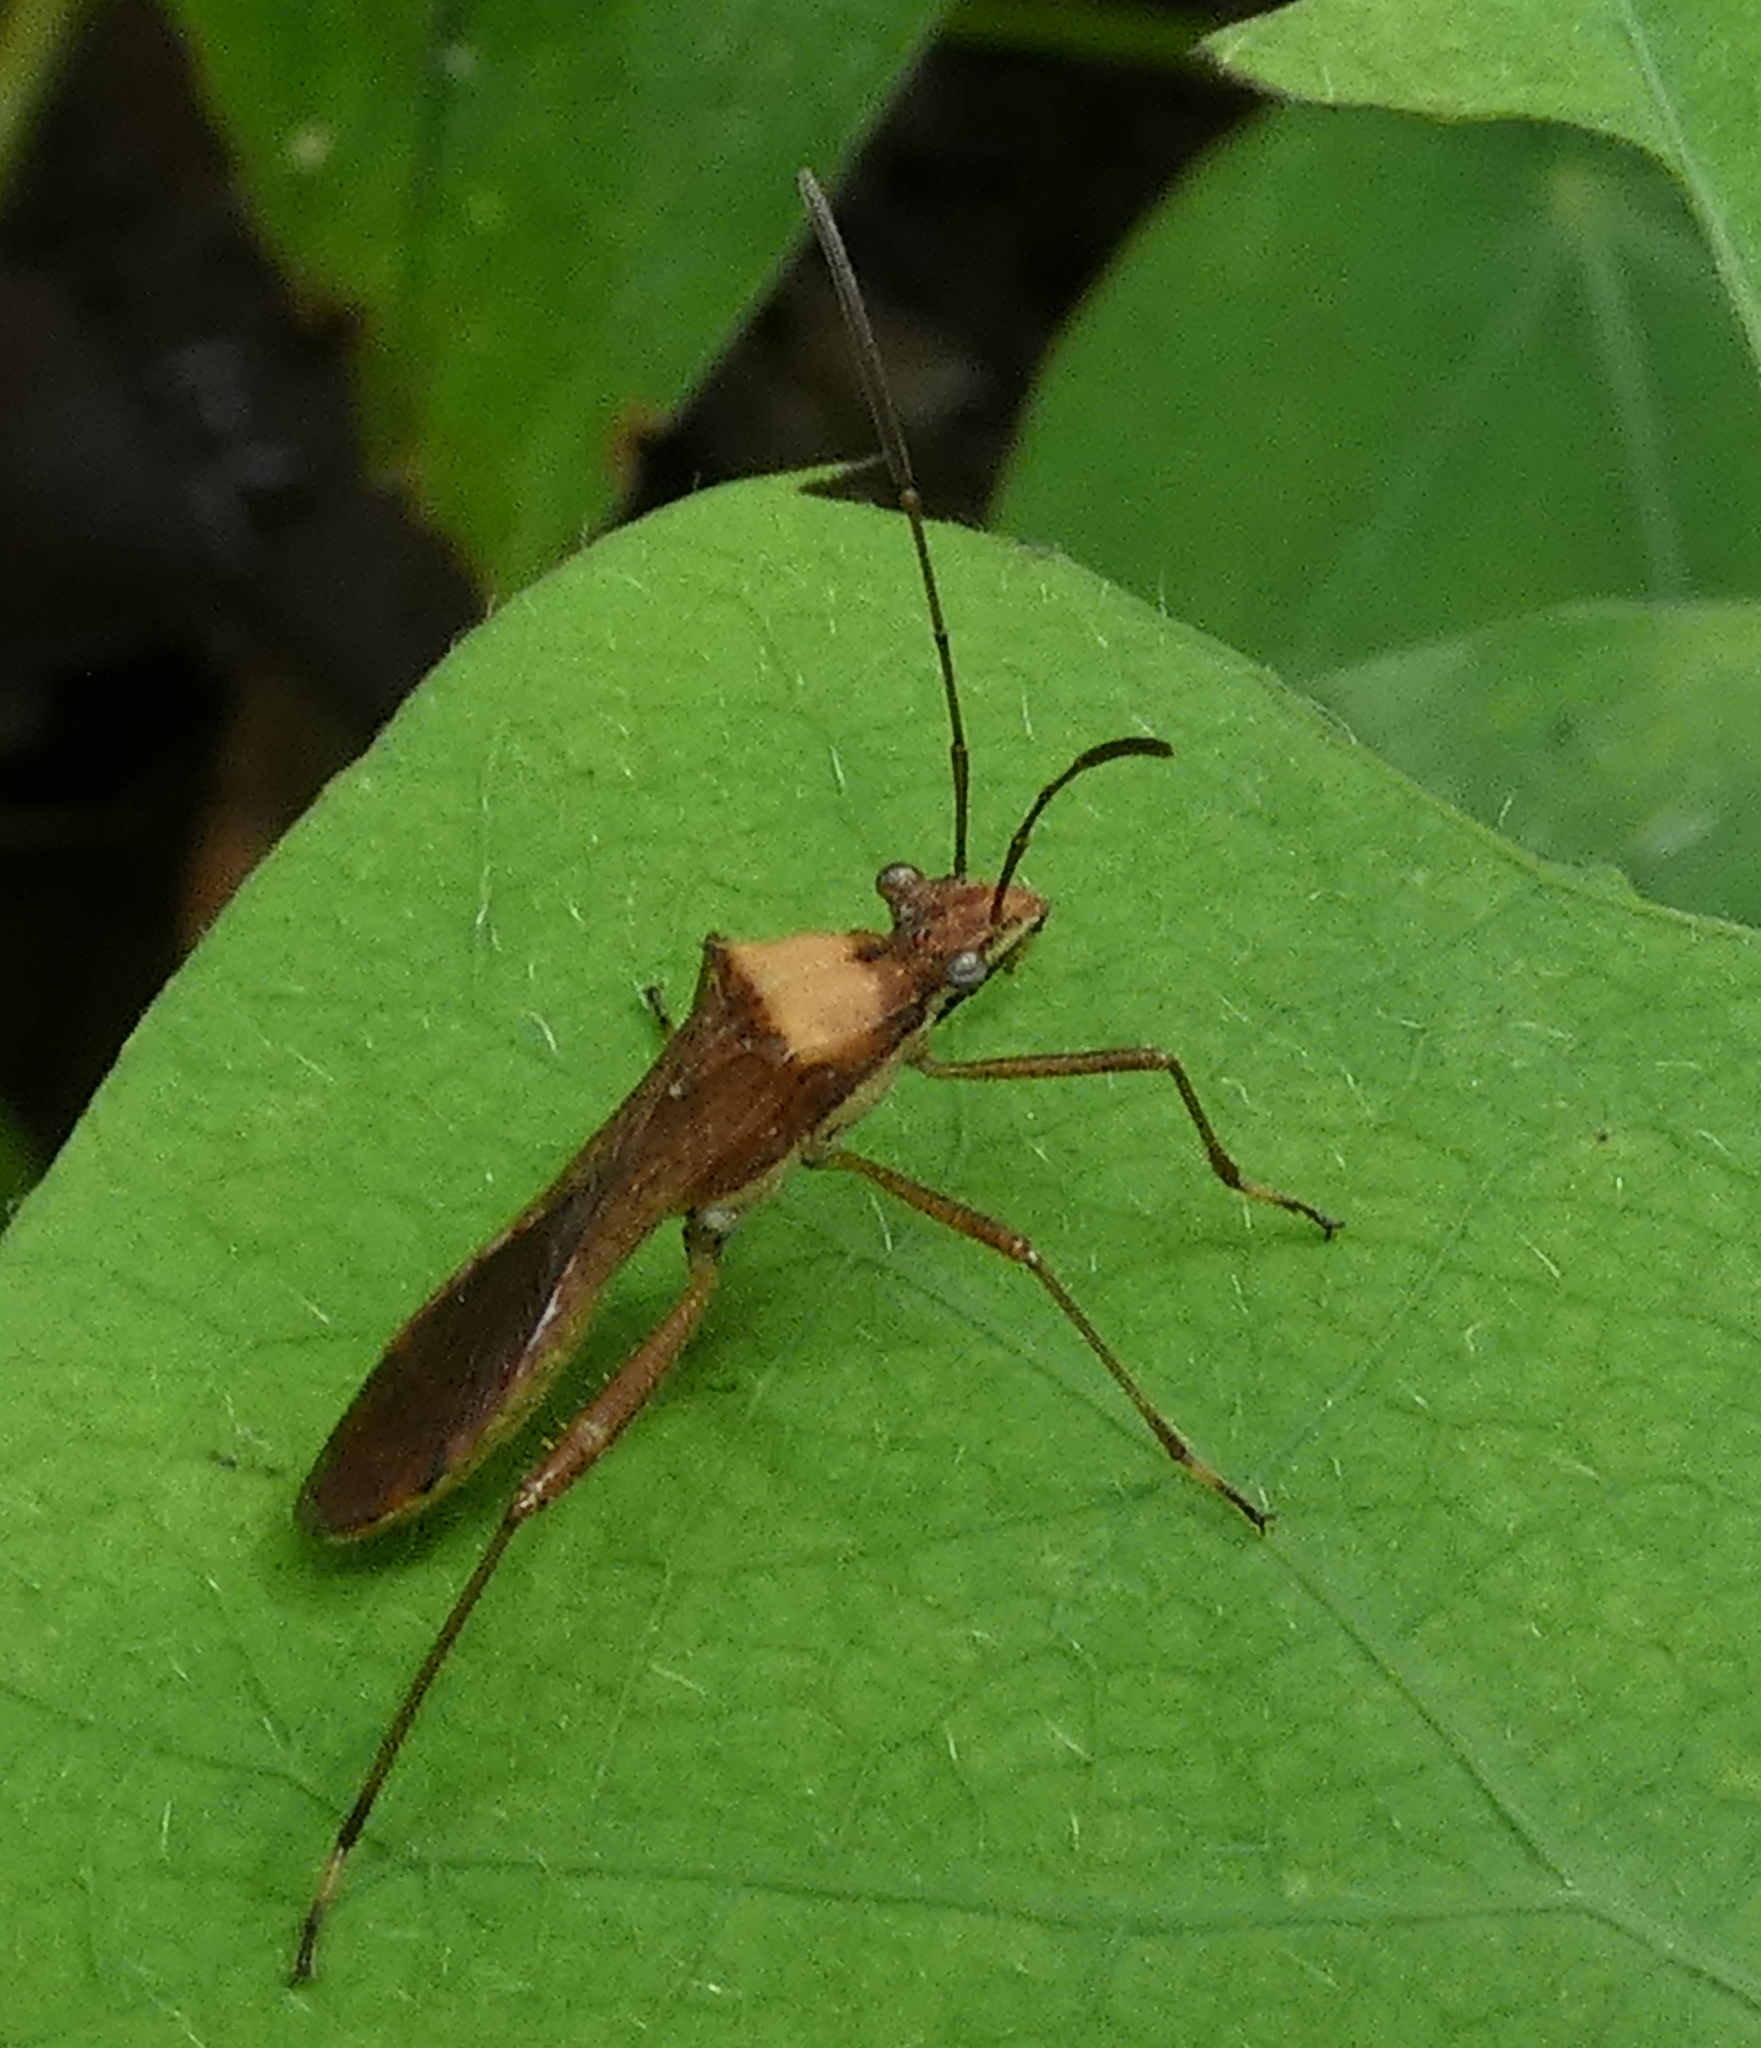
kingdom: Animalia
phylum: Arthropoda
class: Insecta
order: Hemiptera
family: Alydidae
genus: Neomegalotomus
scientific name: Neomegalotomus parvus
